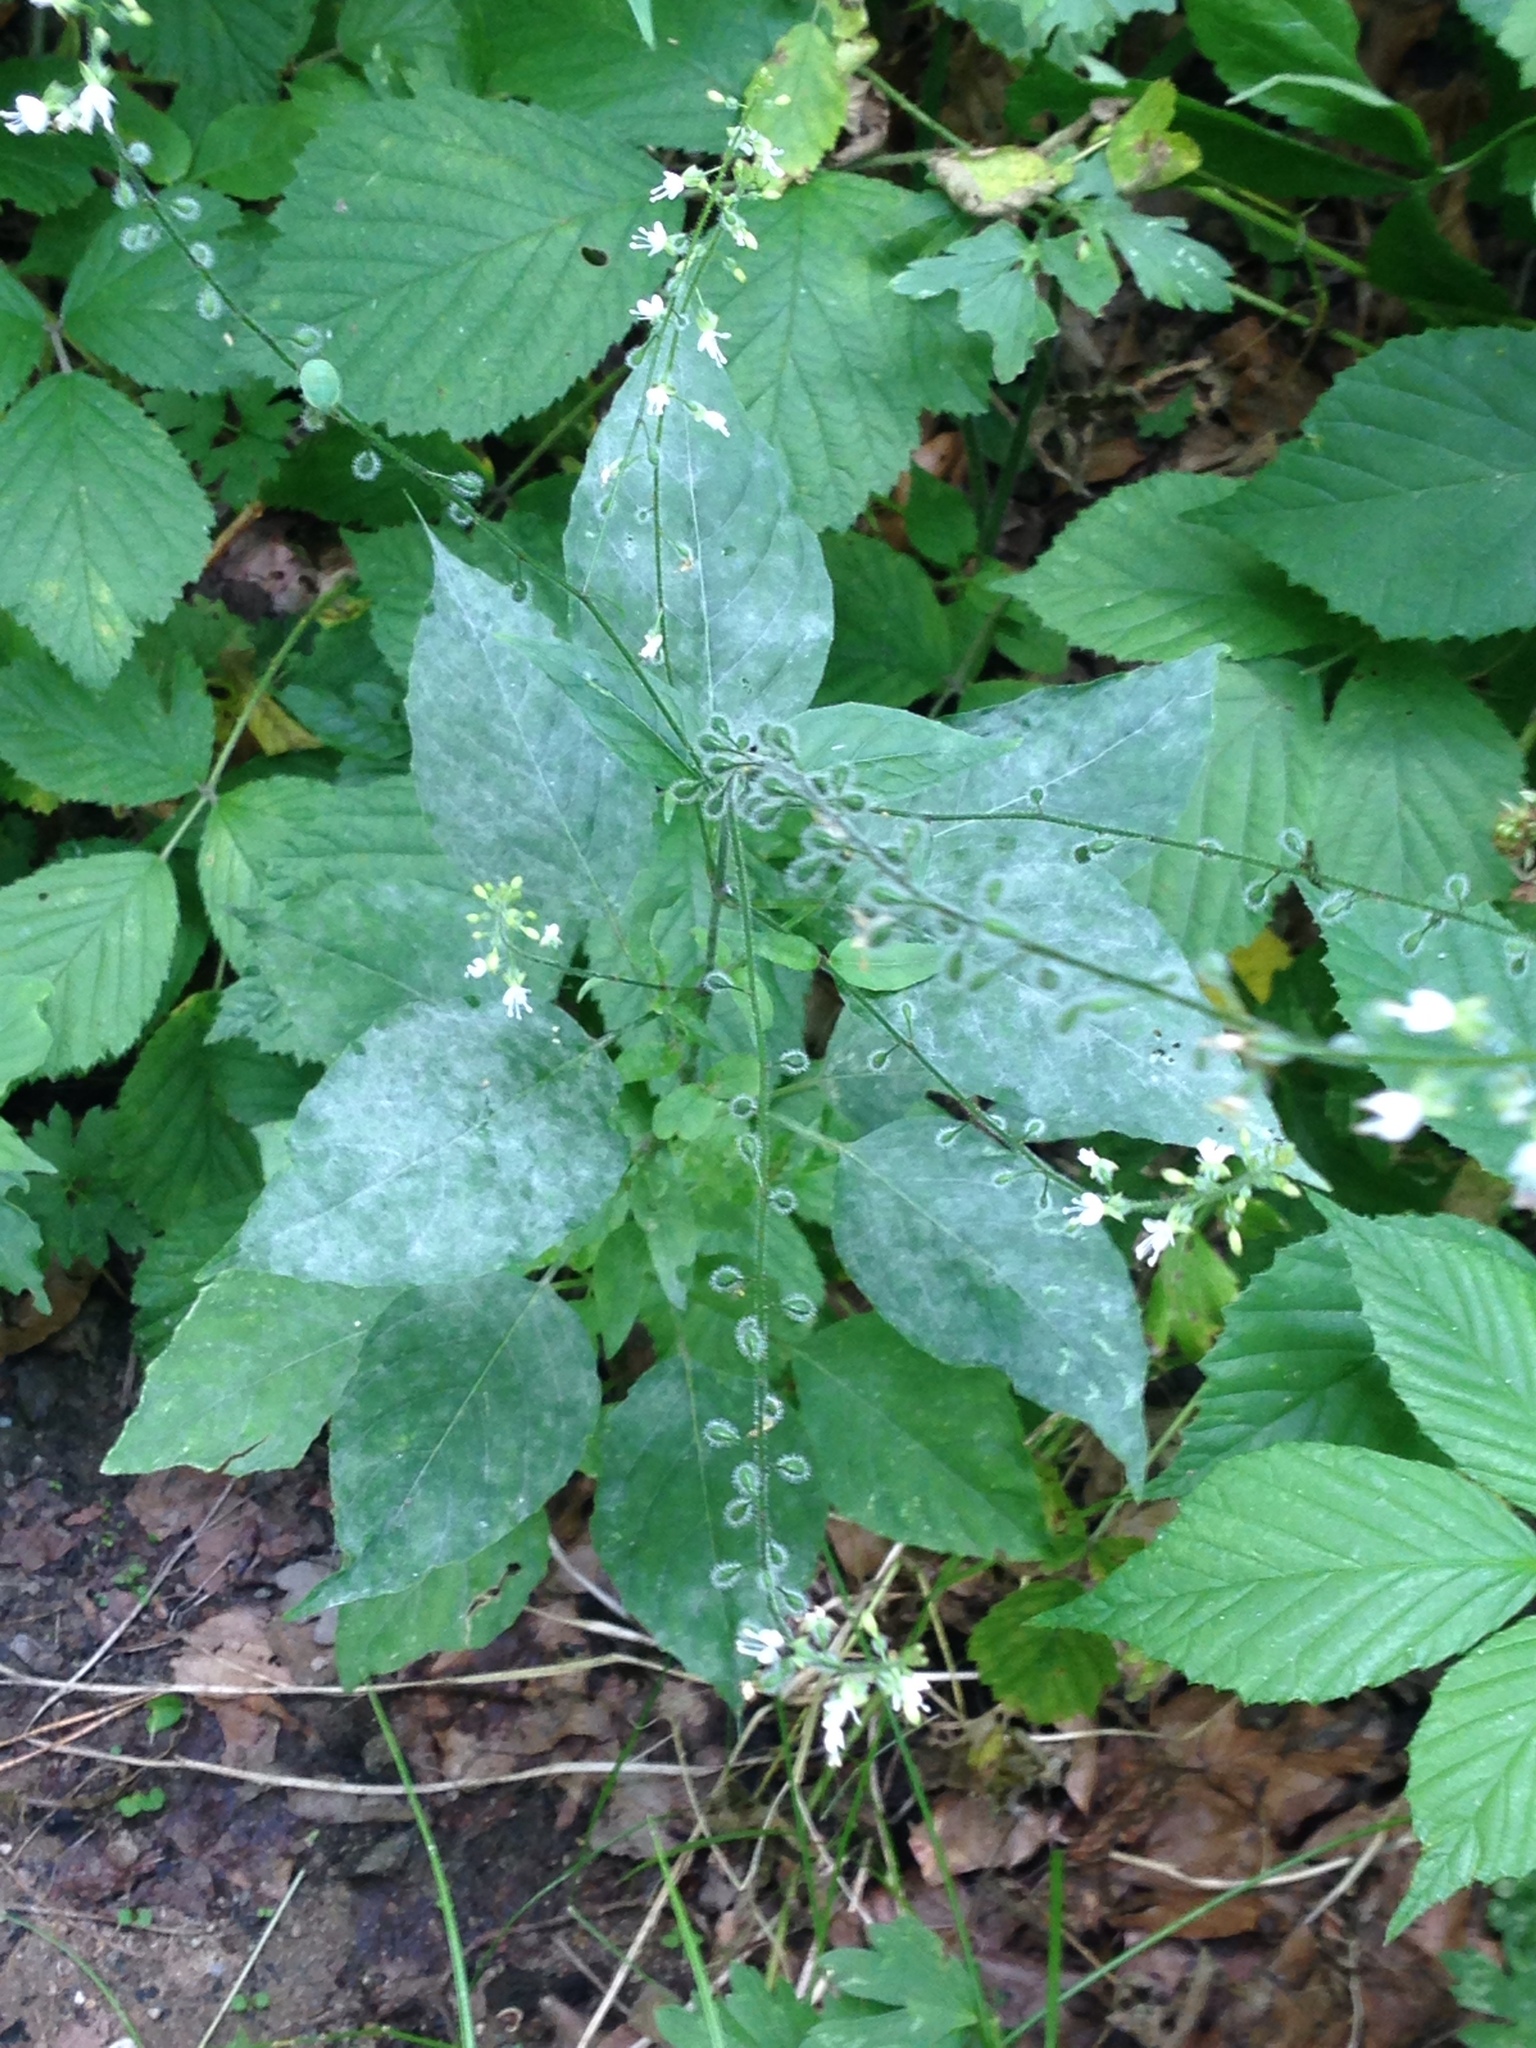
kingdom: Plantae
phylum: Tracheophyta
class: Magnoliopsida
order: Myrtales
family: Onagraceae
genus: Circaea
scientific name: Circaea lutetiana
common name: Enchanter's-nightshade
